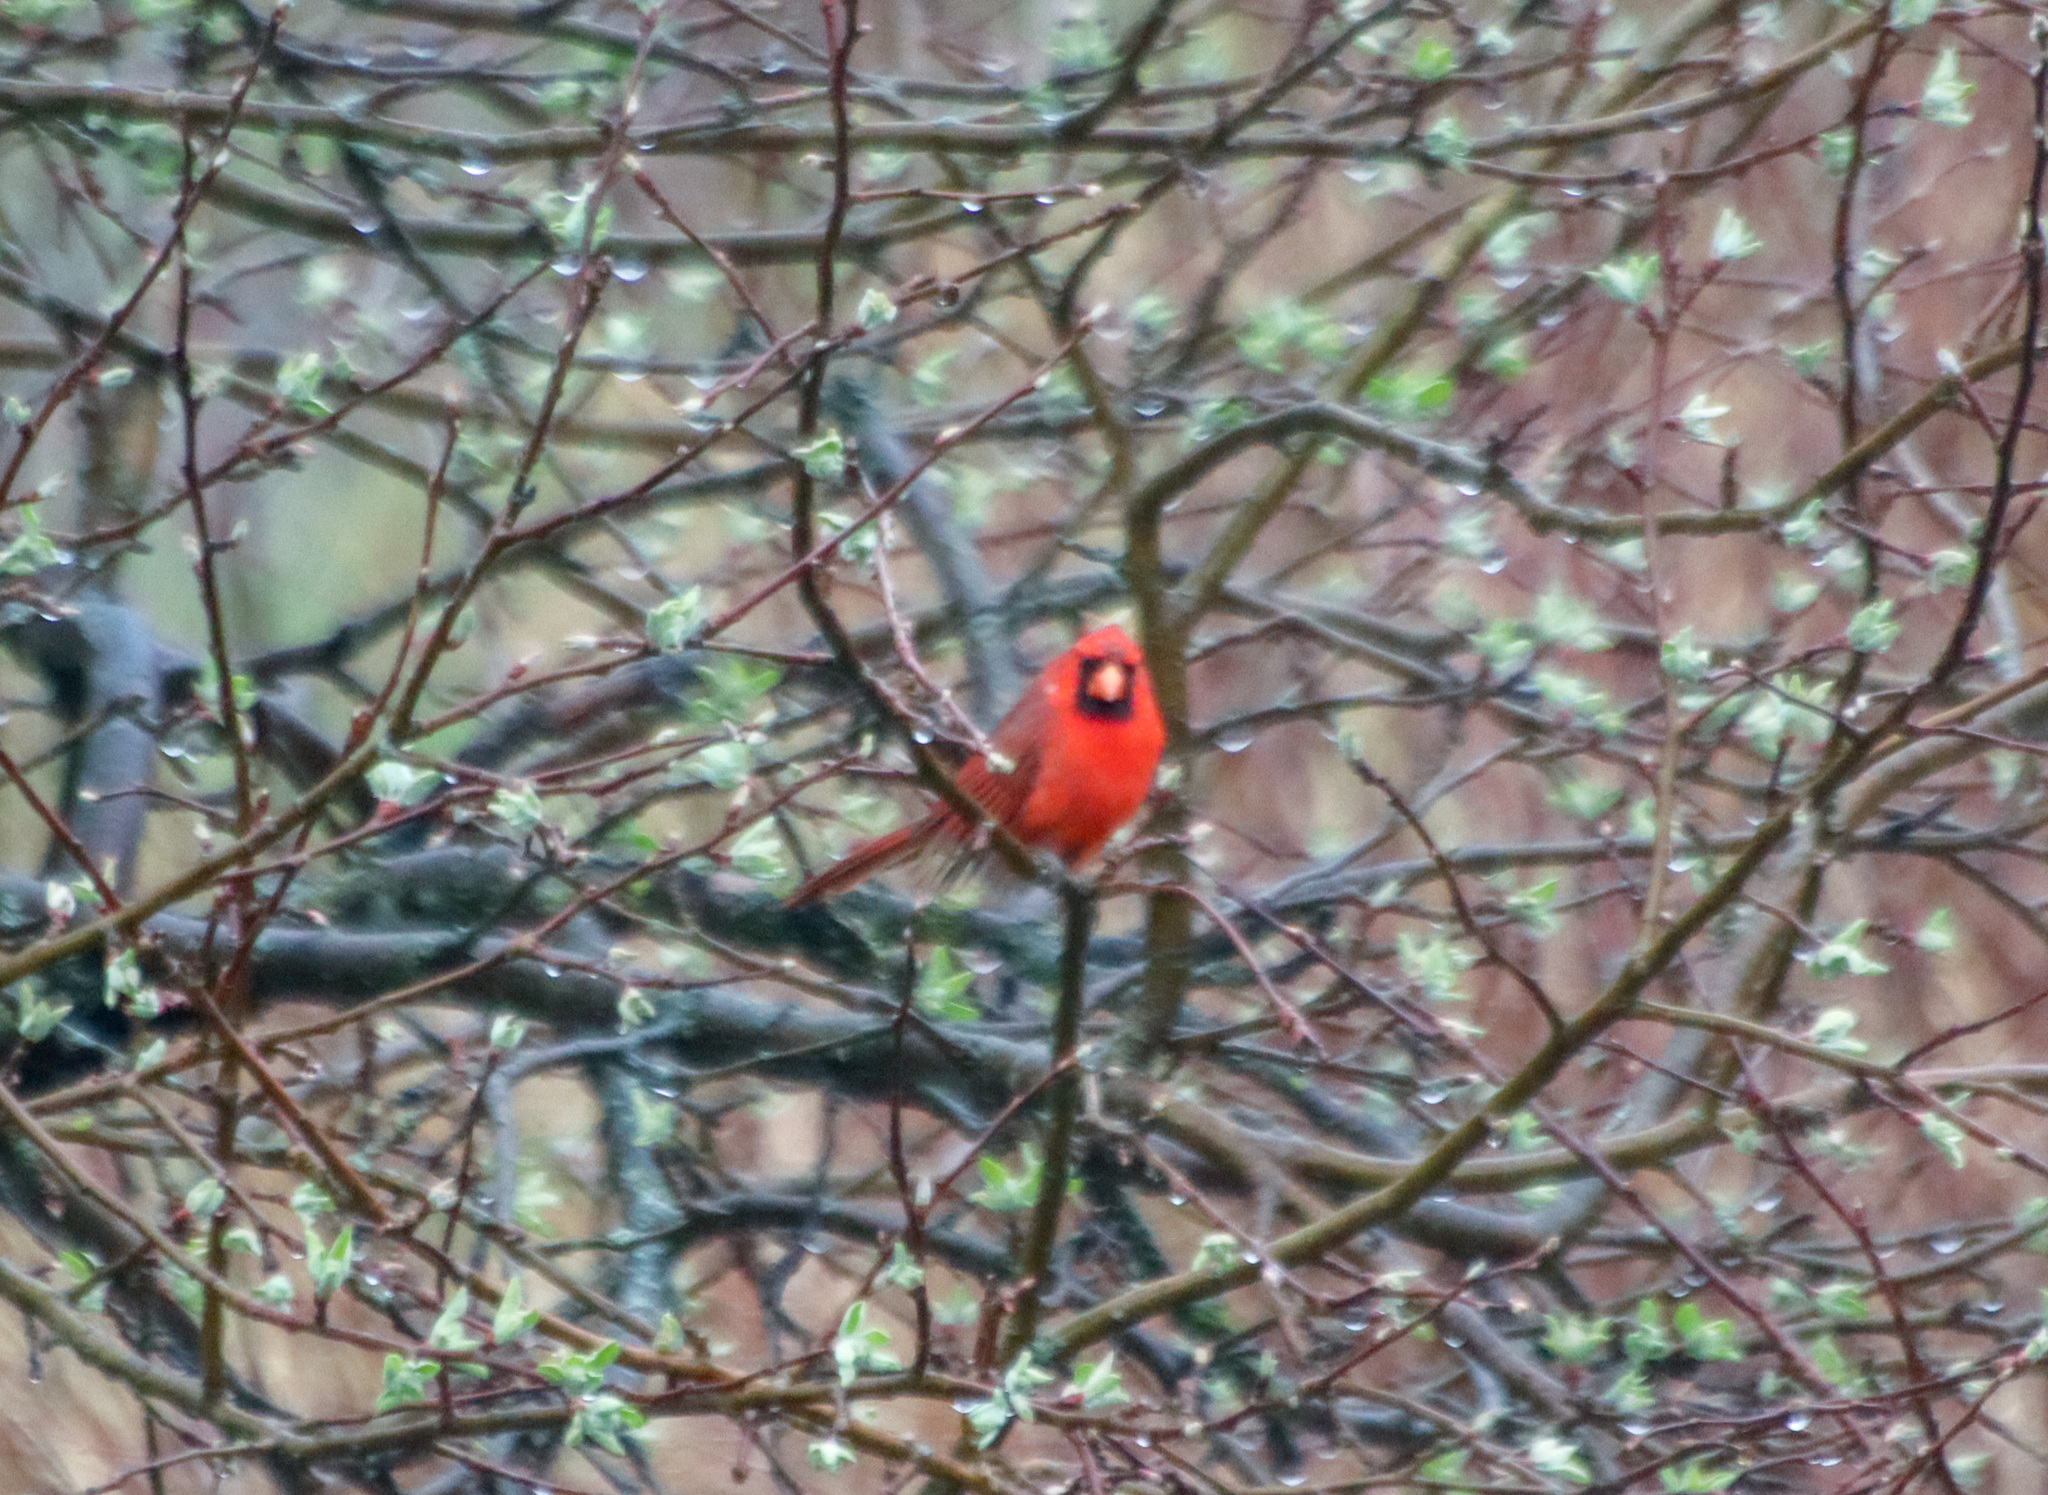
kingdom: Animalia
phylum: Chordata
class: Aves
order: Passeriformes
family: Cardinalidae
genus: Cardinalis
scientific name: Cardinalis cardinalis
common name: Northern cardinal
